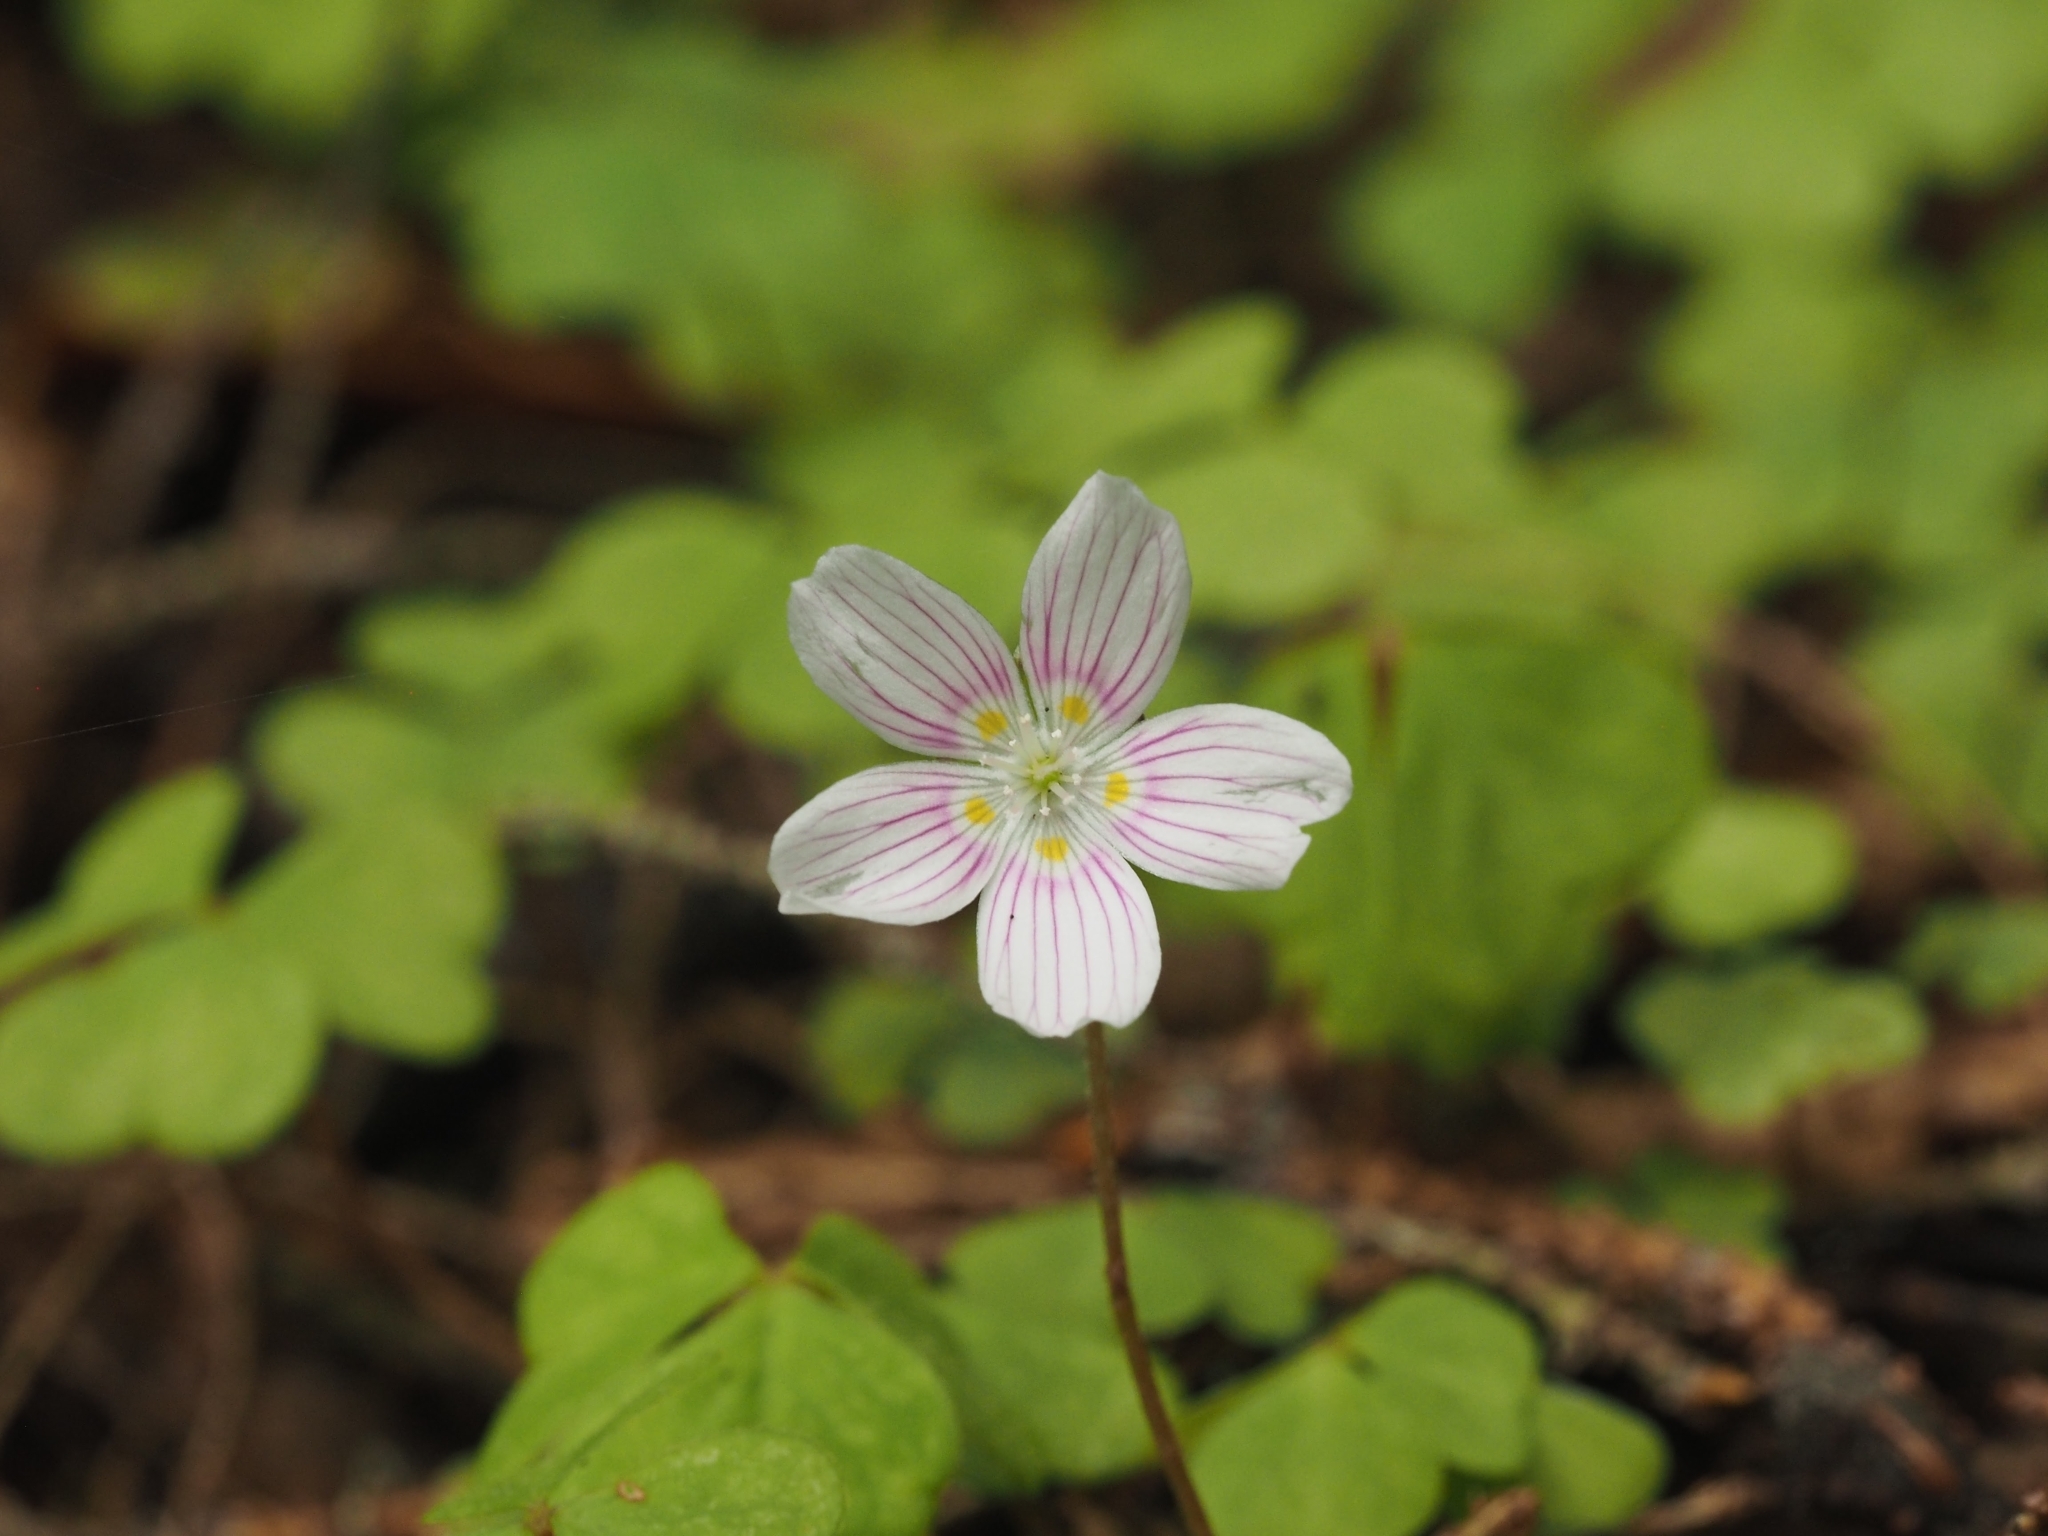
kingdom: Plantae
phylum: Tracheophyta
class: Magnoliopsida
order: Oxalidales
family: Oxalidaceae
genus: Oxalis
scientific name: Oxalis montana
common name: American wood-sorrel
